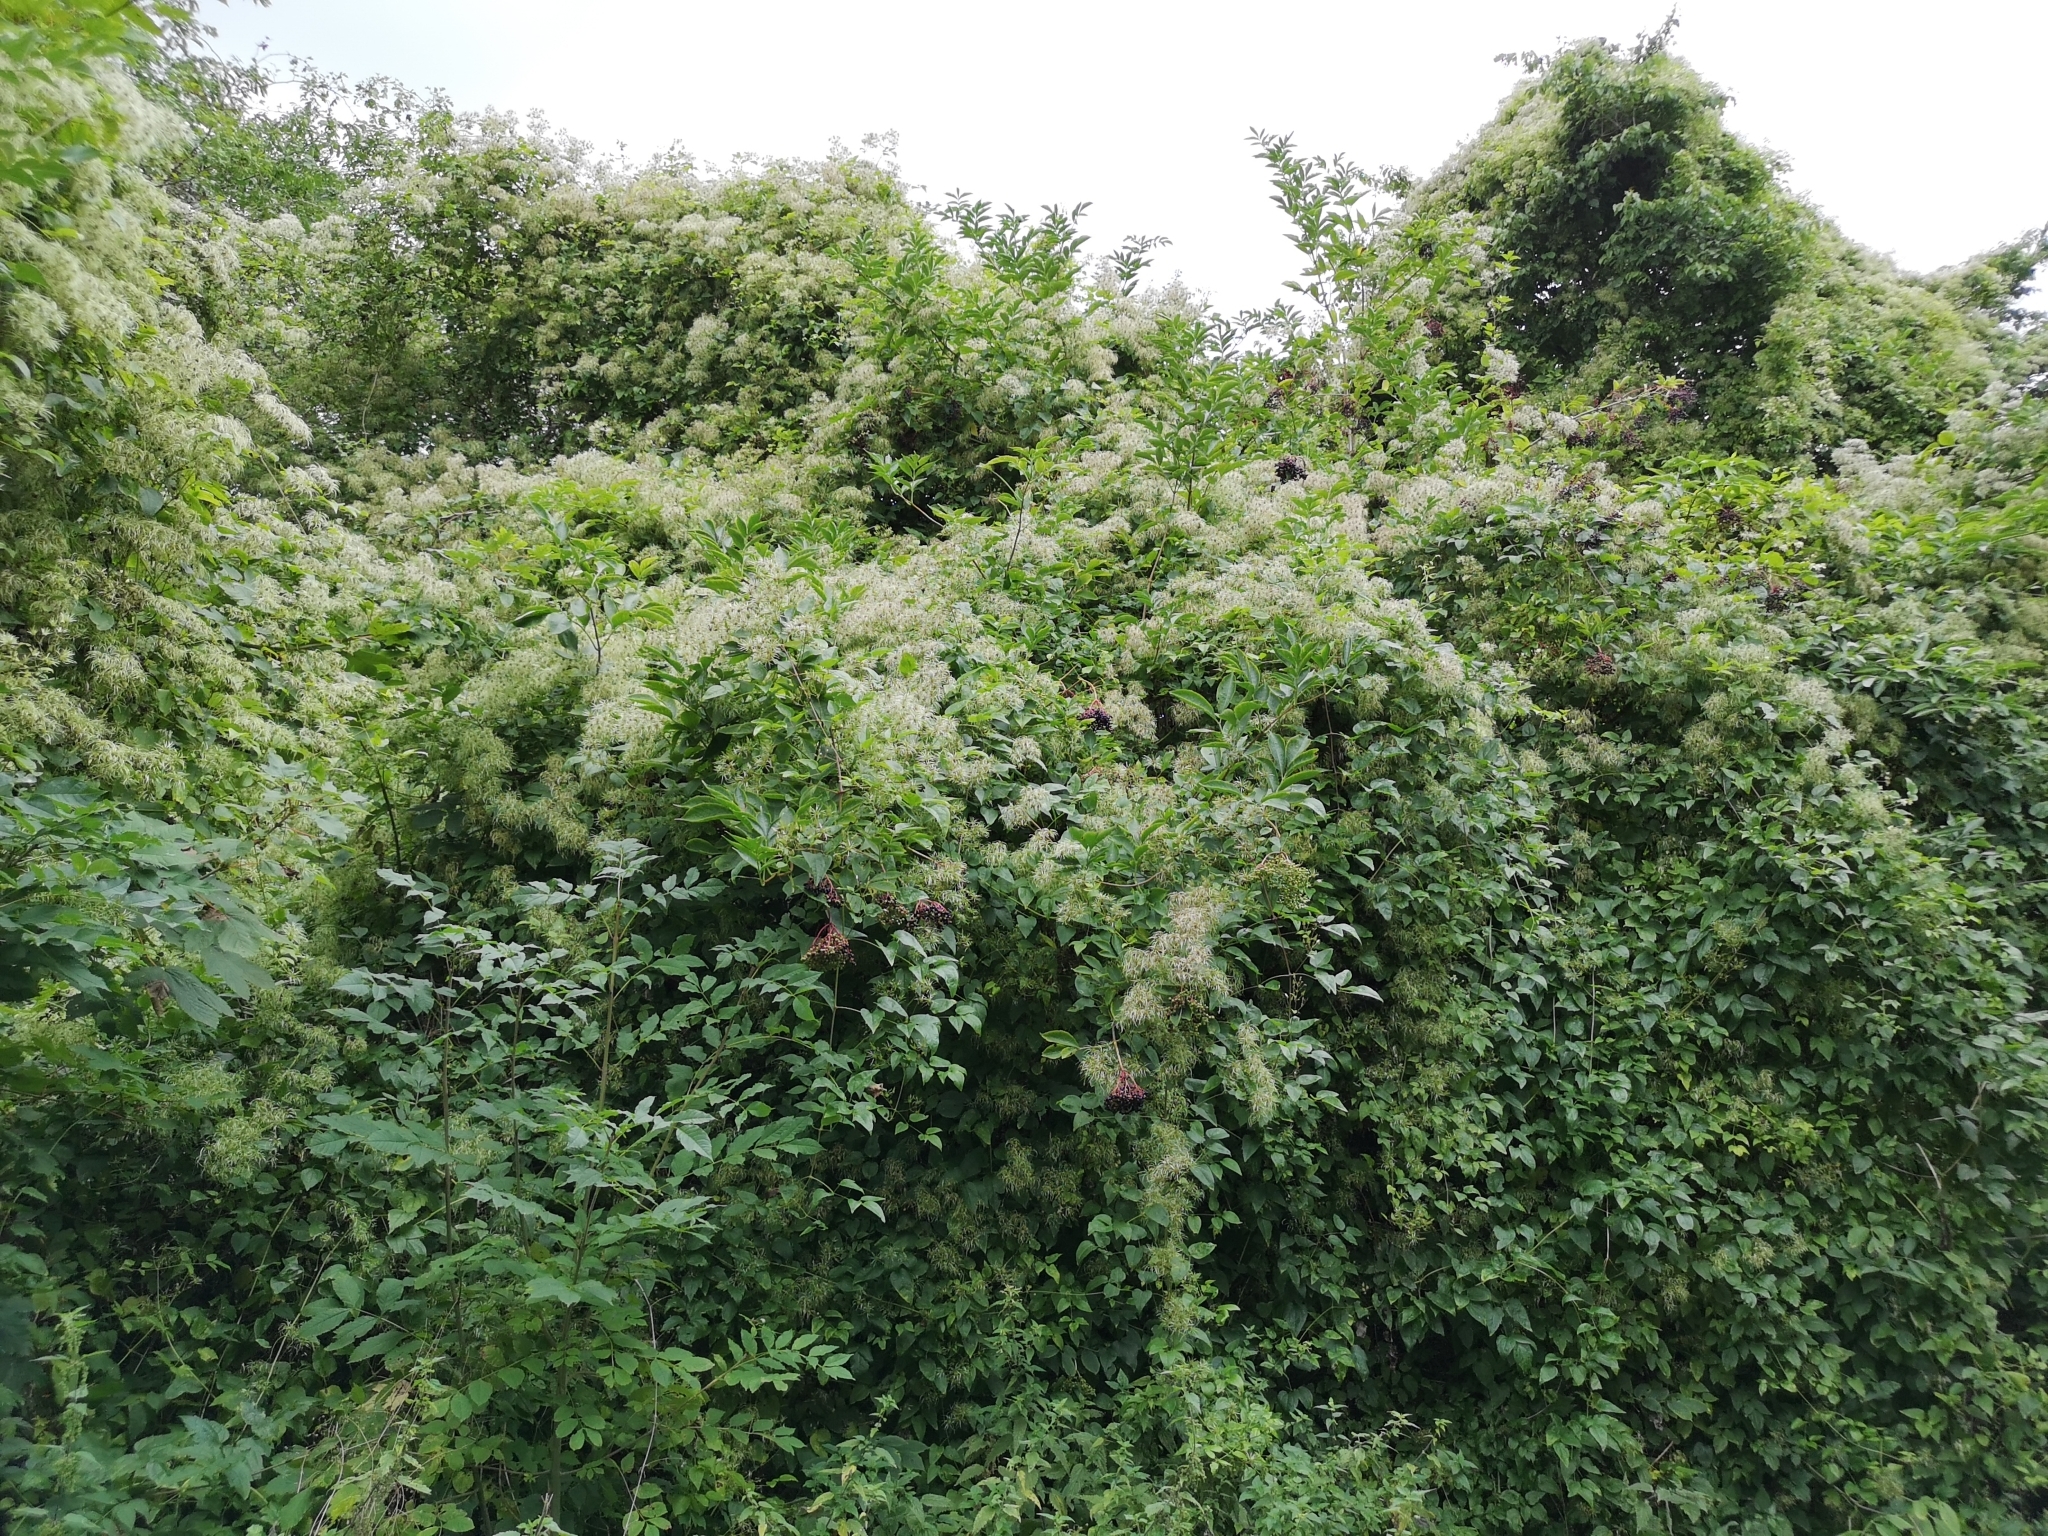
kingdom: Plantae
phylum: Tracheophyta
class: Magnoliopsida
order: Ranunculales
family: Ranunculaceae
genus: Clematis
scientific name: Clematis vitalba
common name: Evergreen clematis
